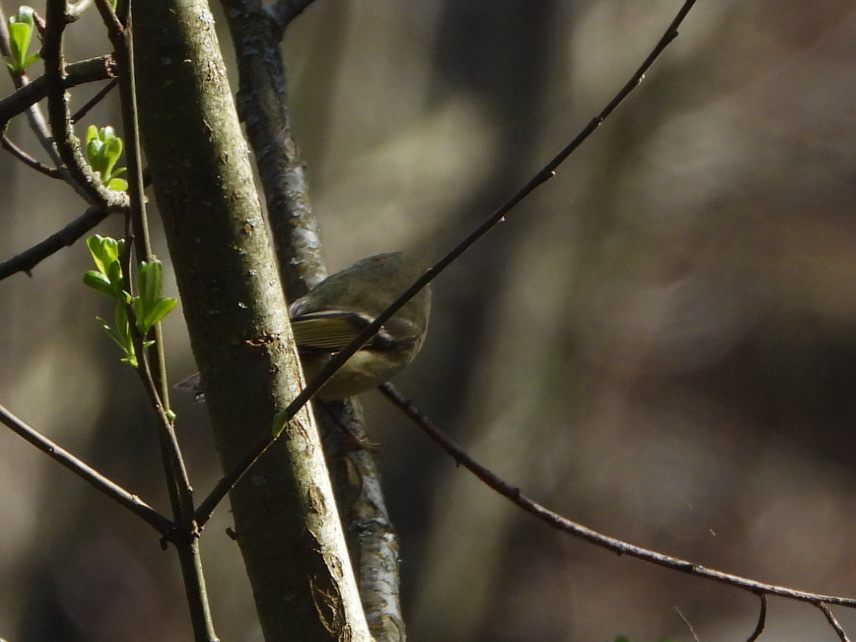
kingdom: Animalia
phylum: Chordata
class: Aves
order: Passeriformes
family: Regulidae
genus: Regulus
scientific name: Regulus calendula
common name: Ruby-crowned kinglet
